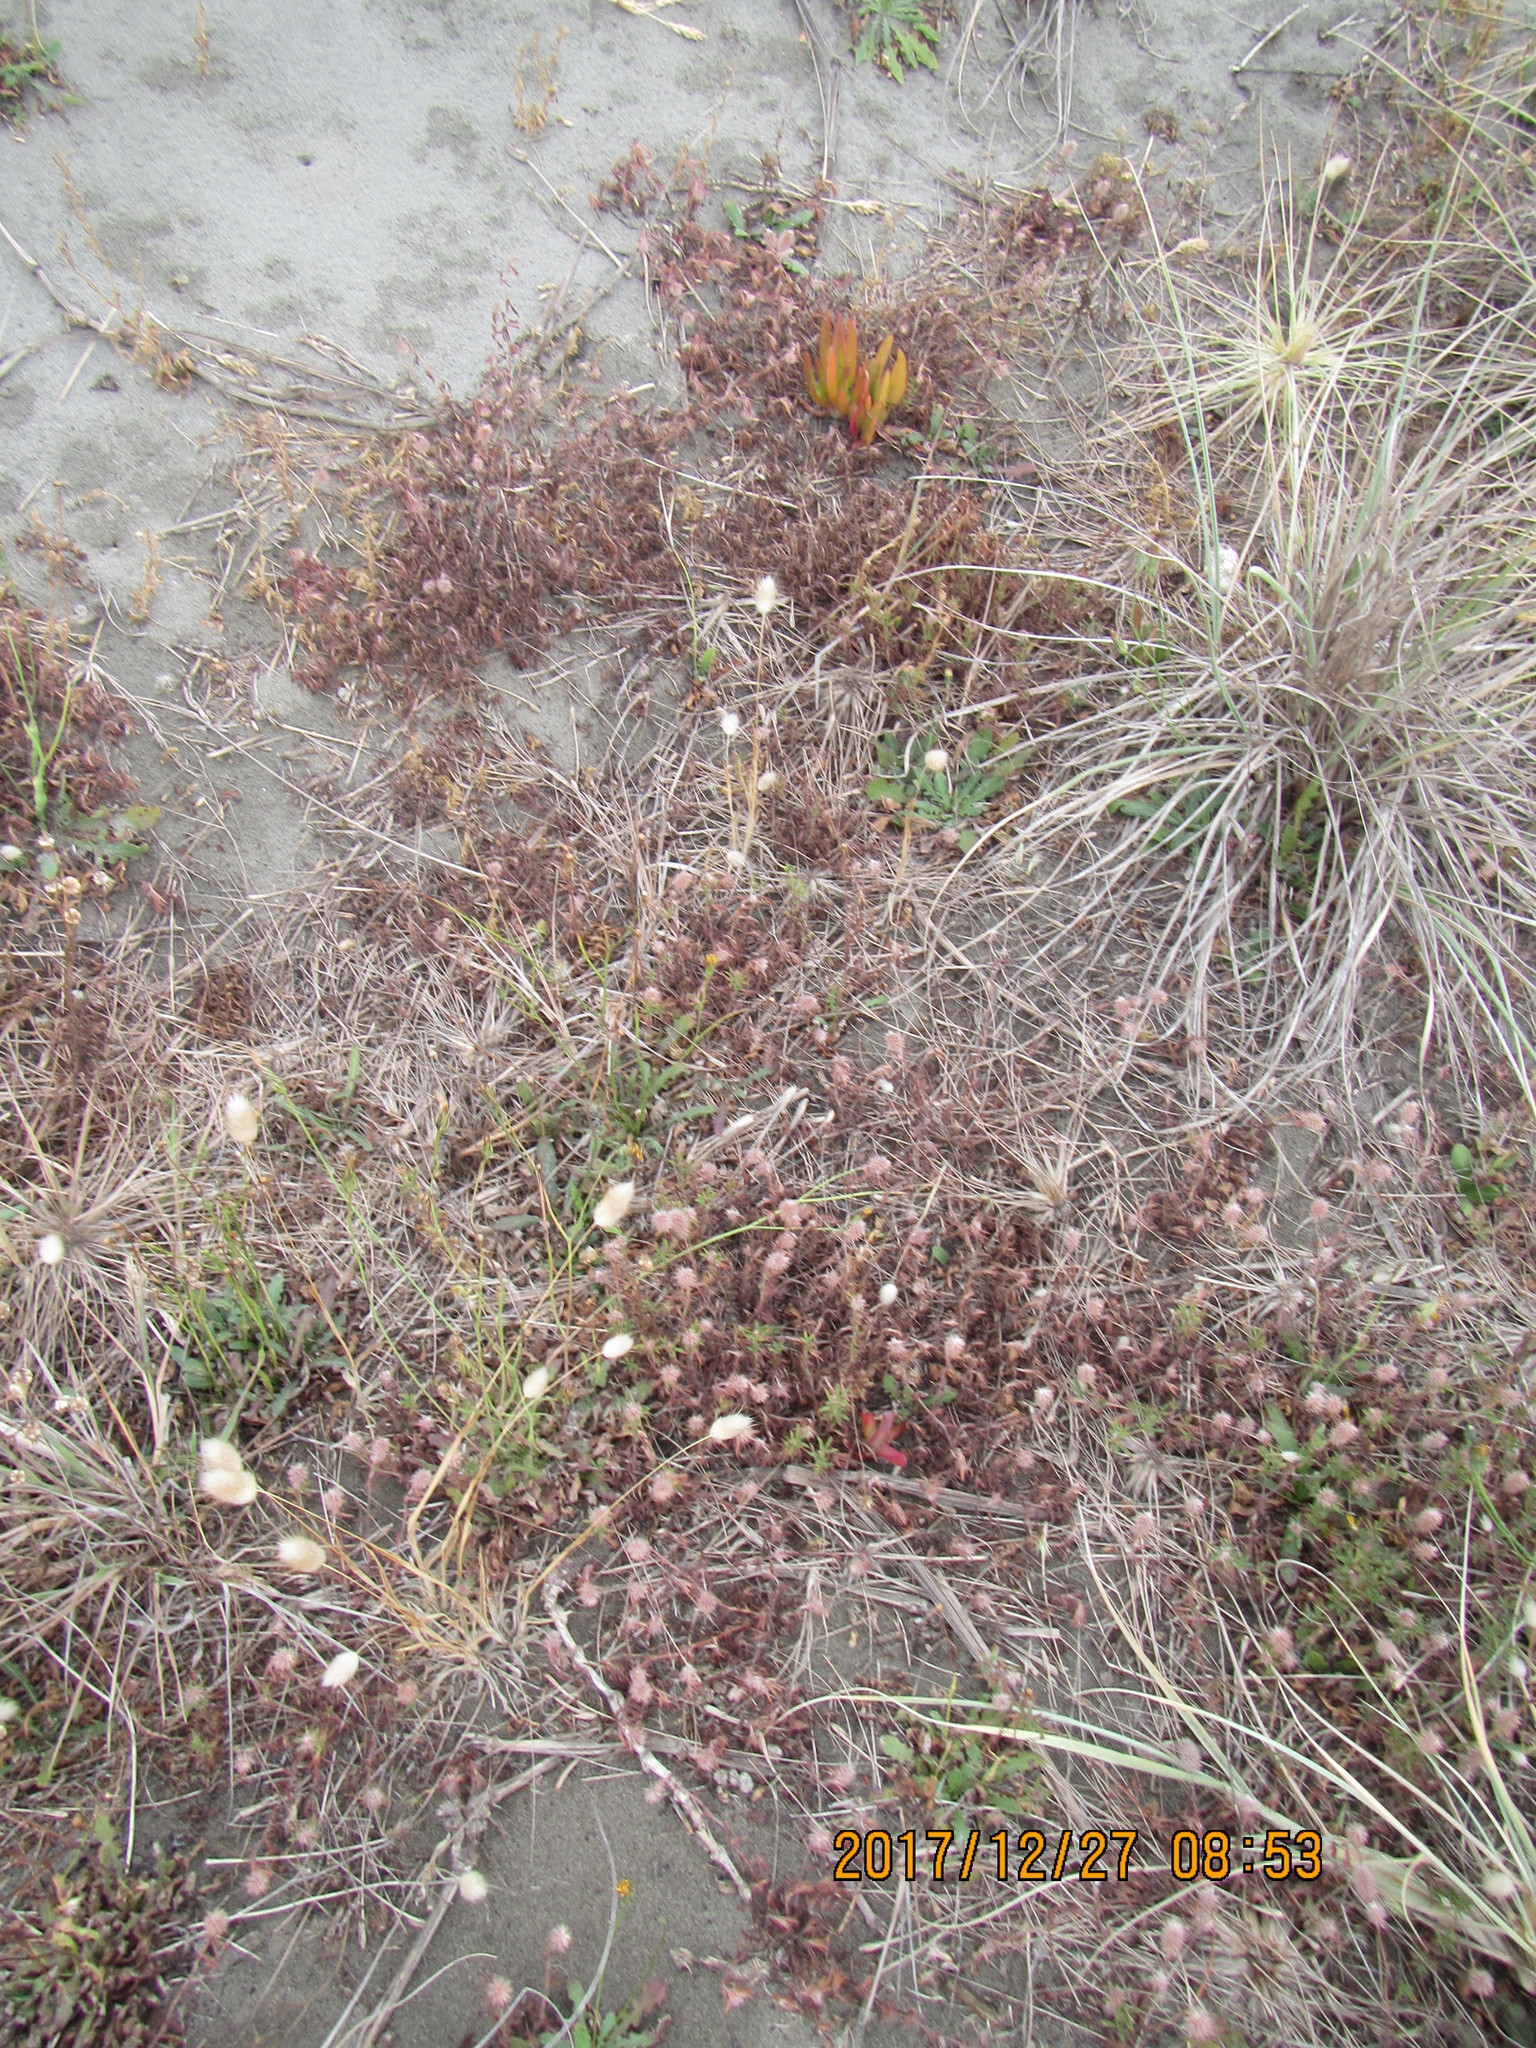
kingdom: Plantae
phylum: Tracheophyta
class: Magnoliopsida
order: Caryophyllales
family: Aizoaceae
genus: Carpobrotus
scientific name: Carpobrotus
